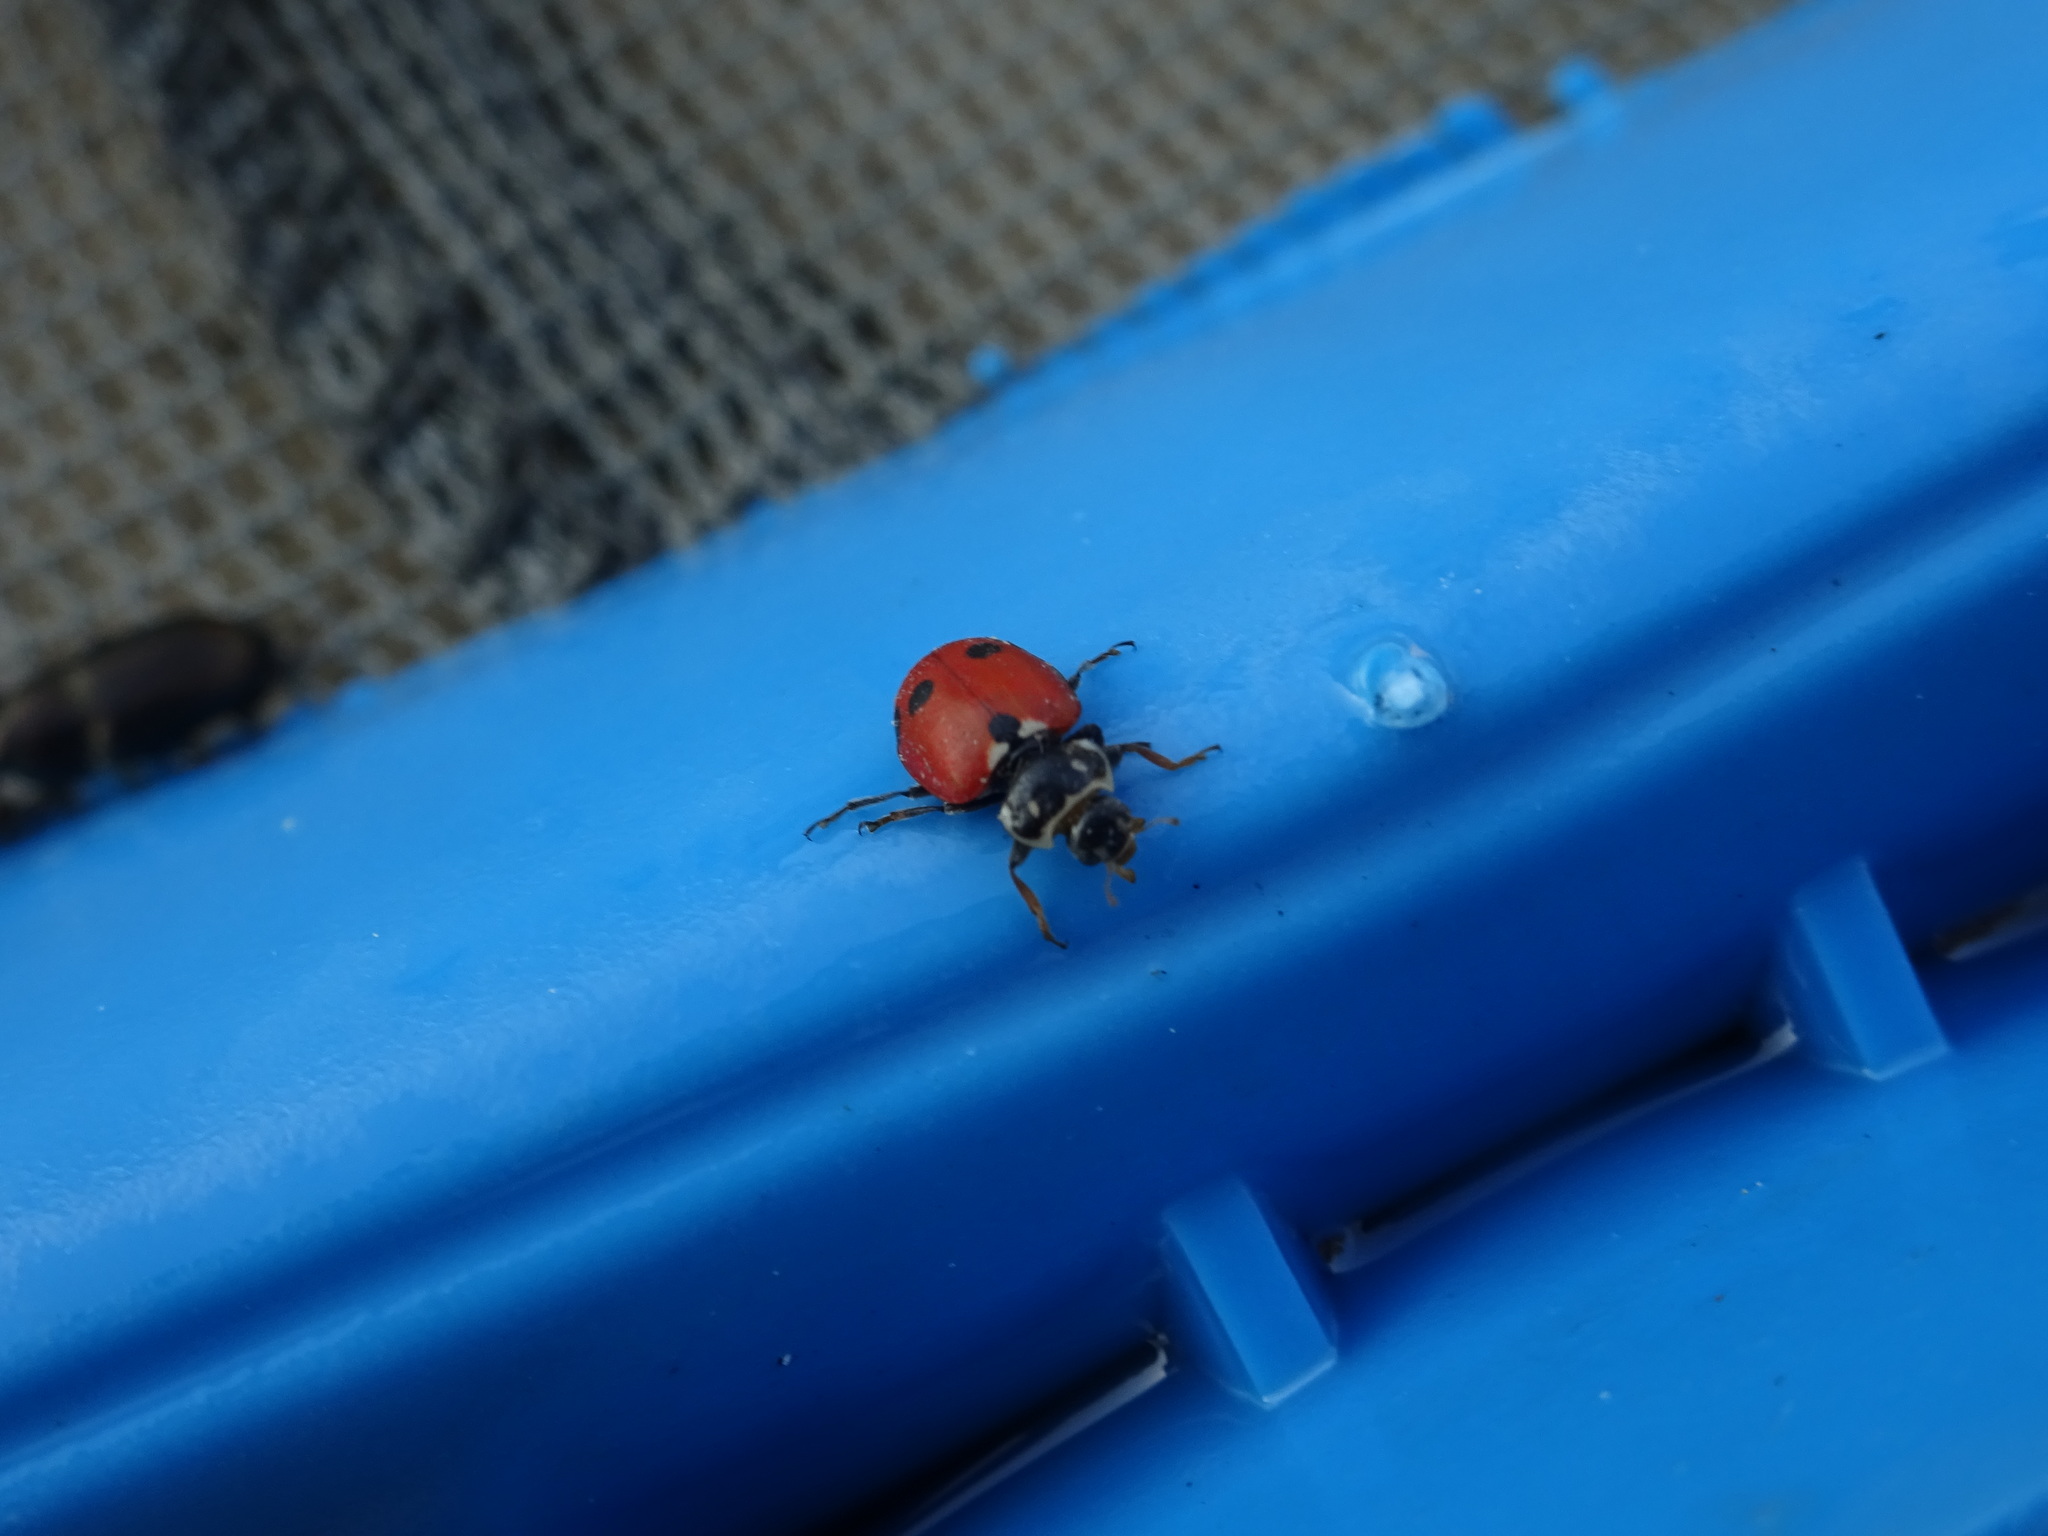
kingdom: Animalia
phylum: Arthropoda
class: Insecta
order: Coleoptera
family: Coccinellidae
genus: Hippodamia
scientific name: Hippodamia variegata
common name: Ladybird beetle
